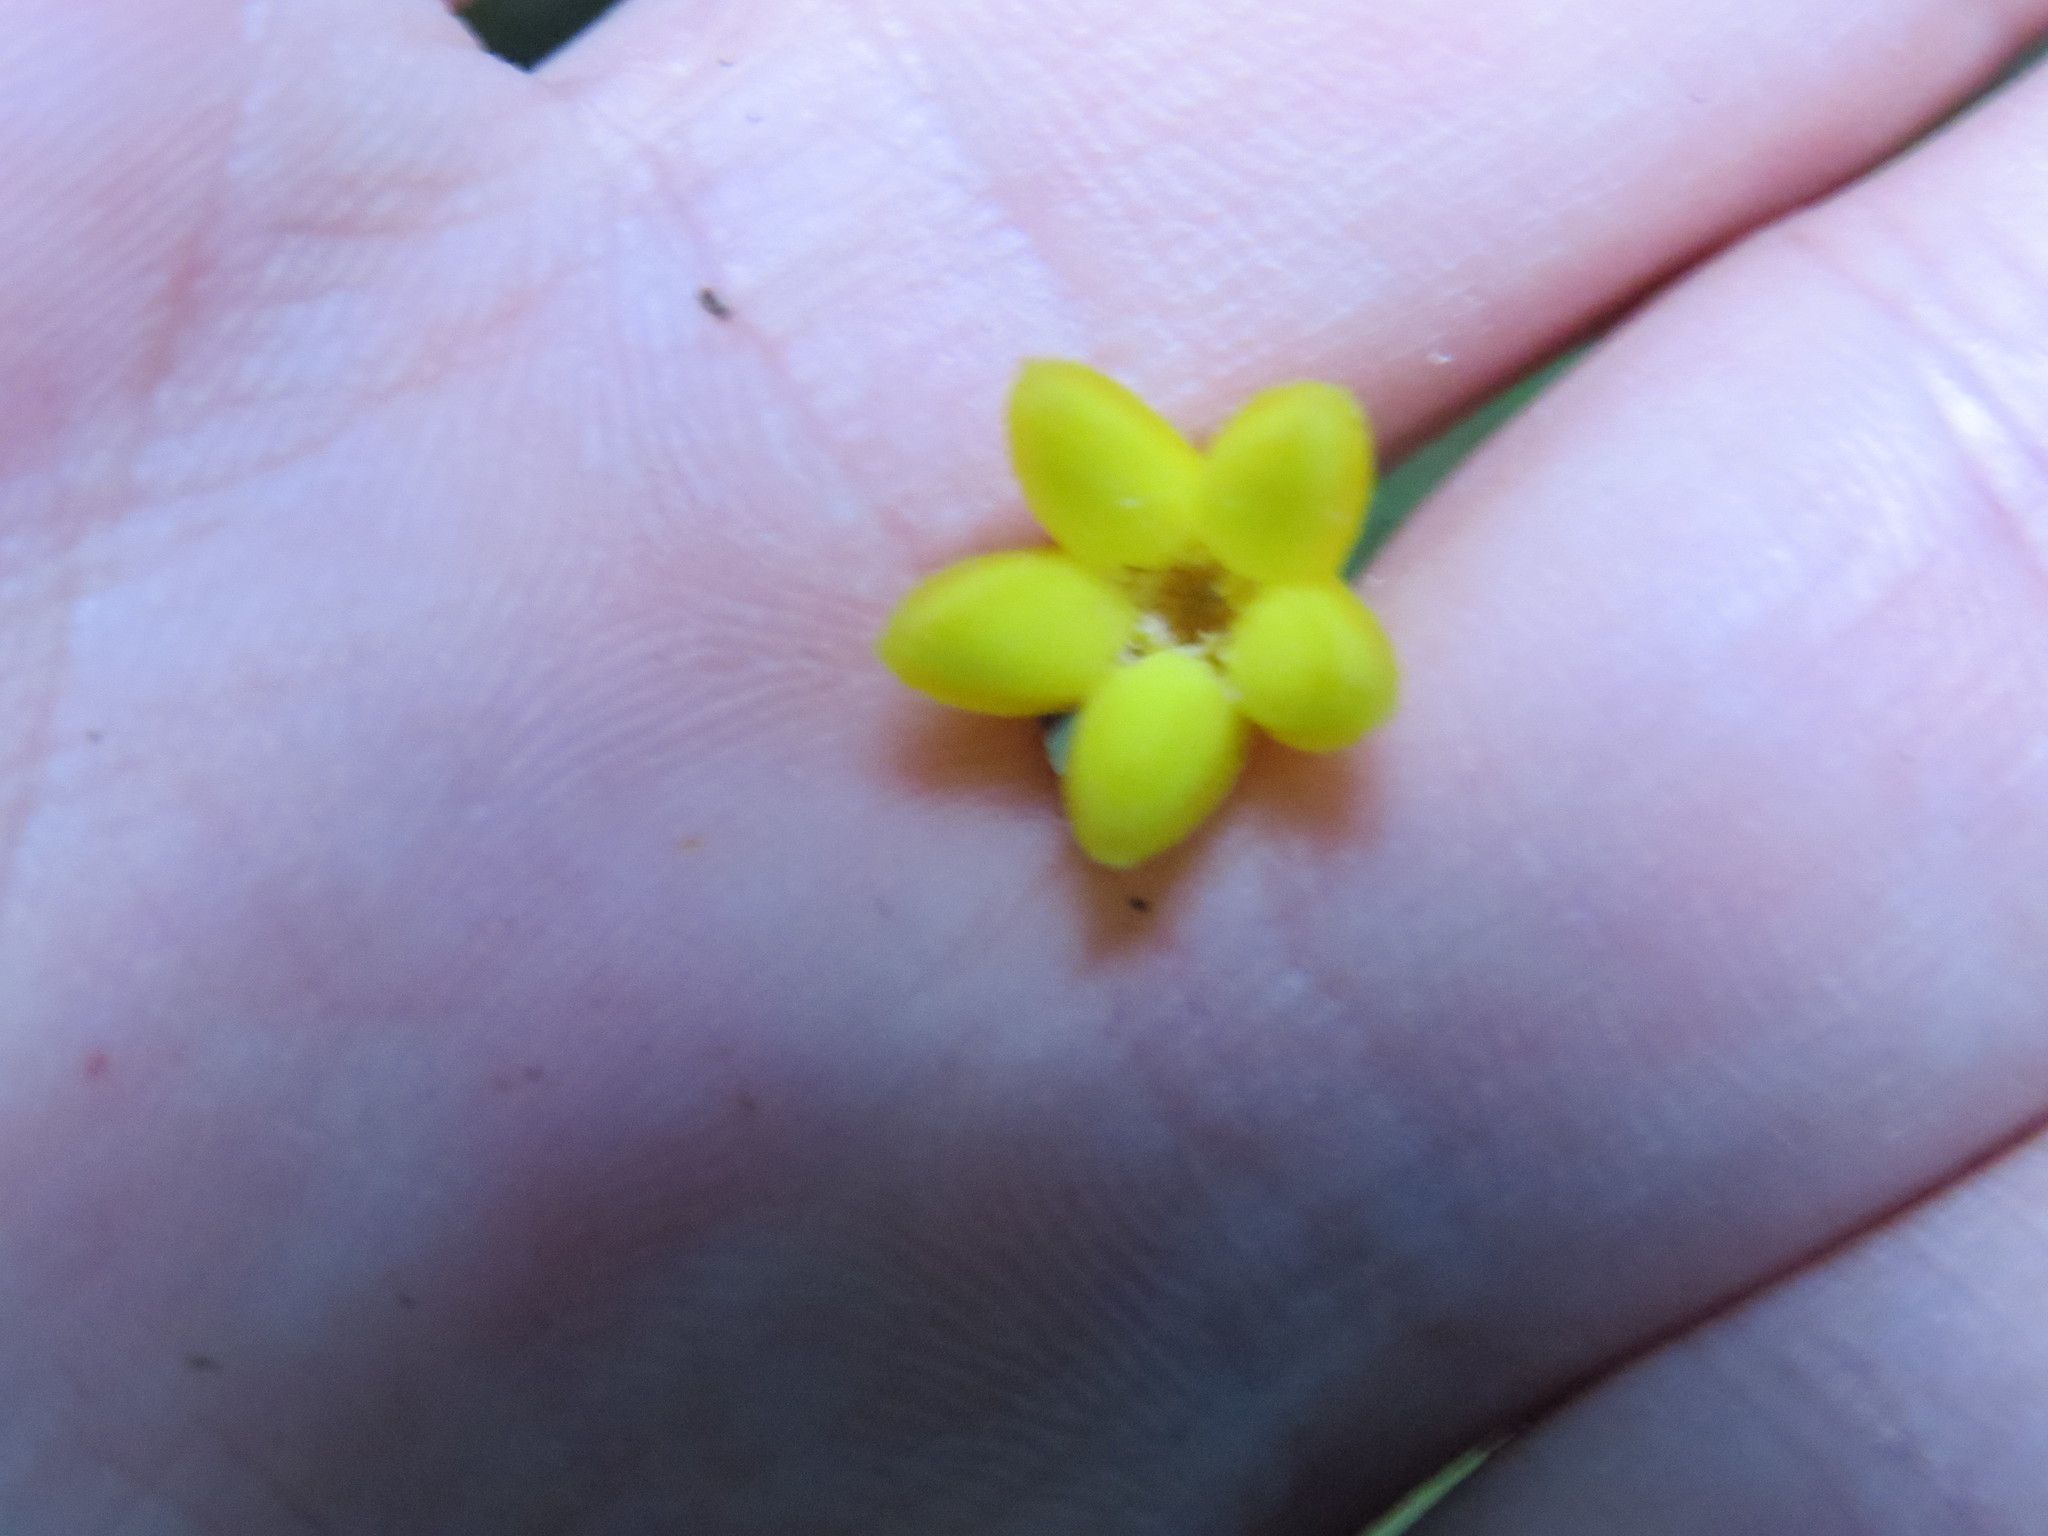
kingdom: Plantae
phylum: Tracheophyta
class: Magnoliopsida
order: Gentianales
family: Rubiaceae
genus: Psychotria
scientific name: Psychotria nuda
